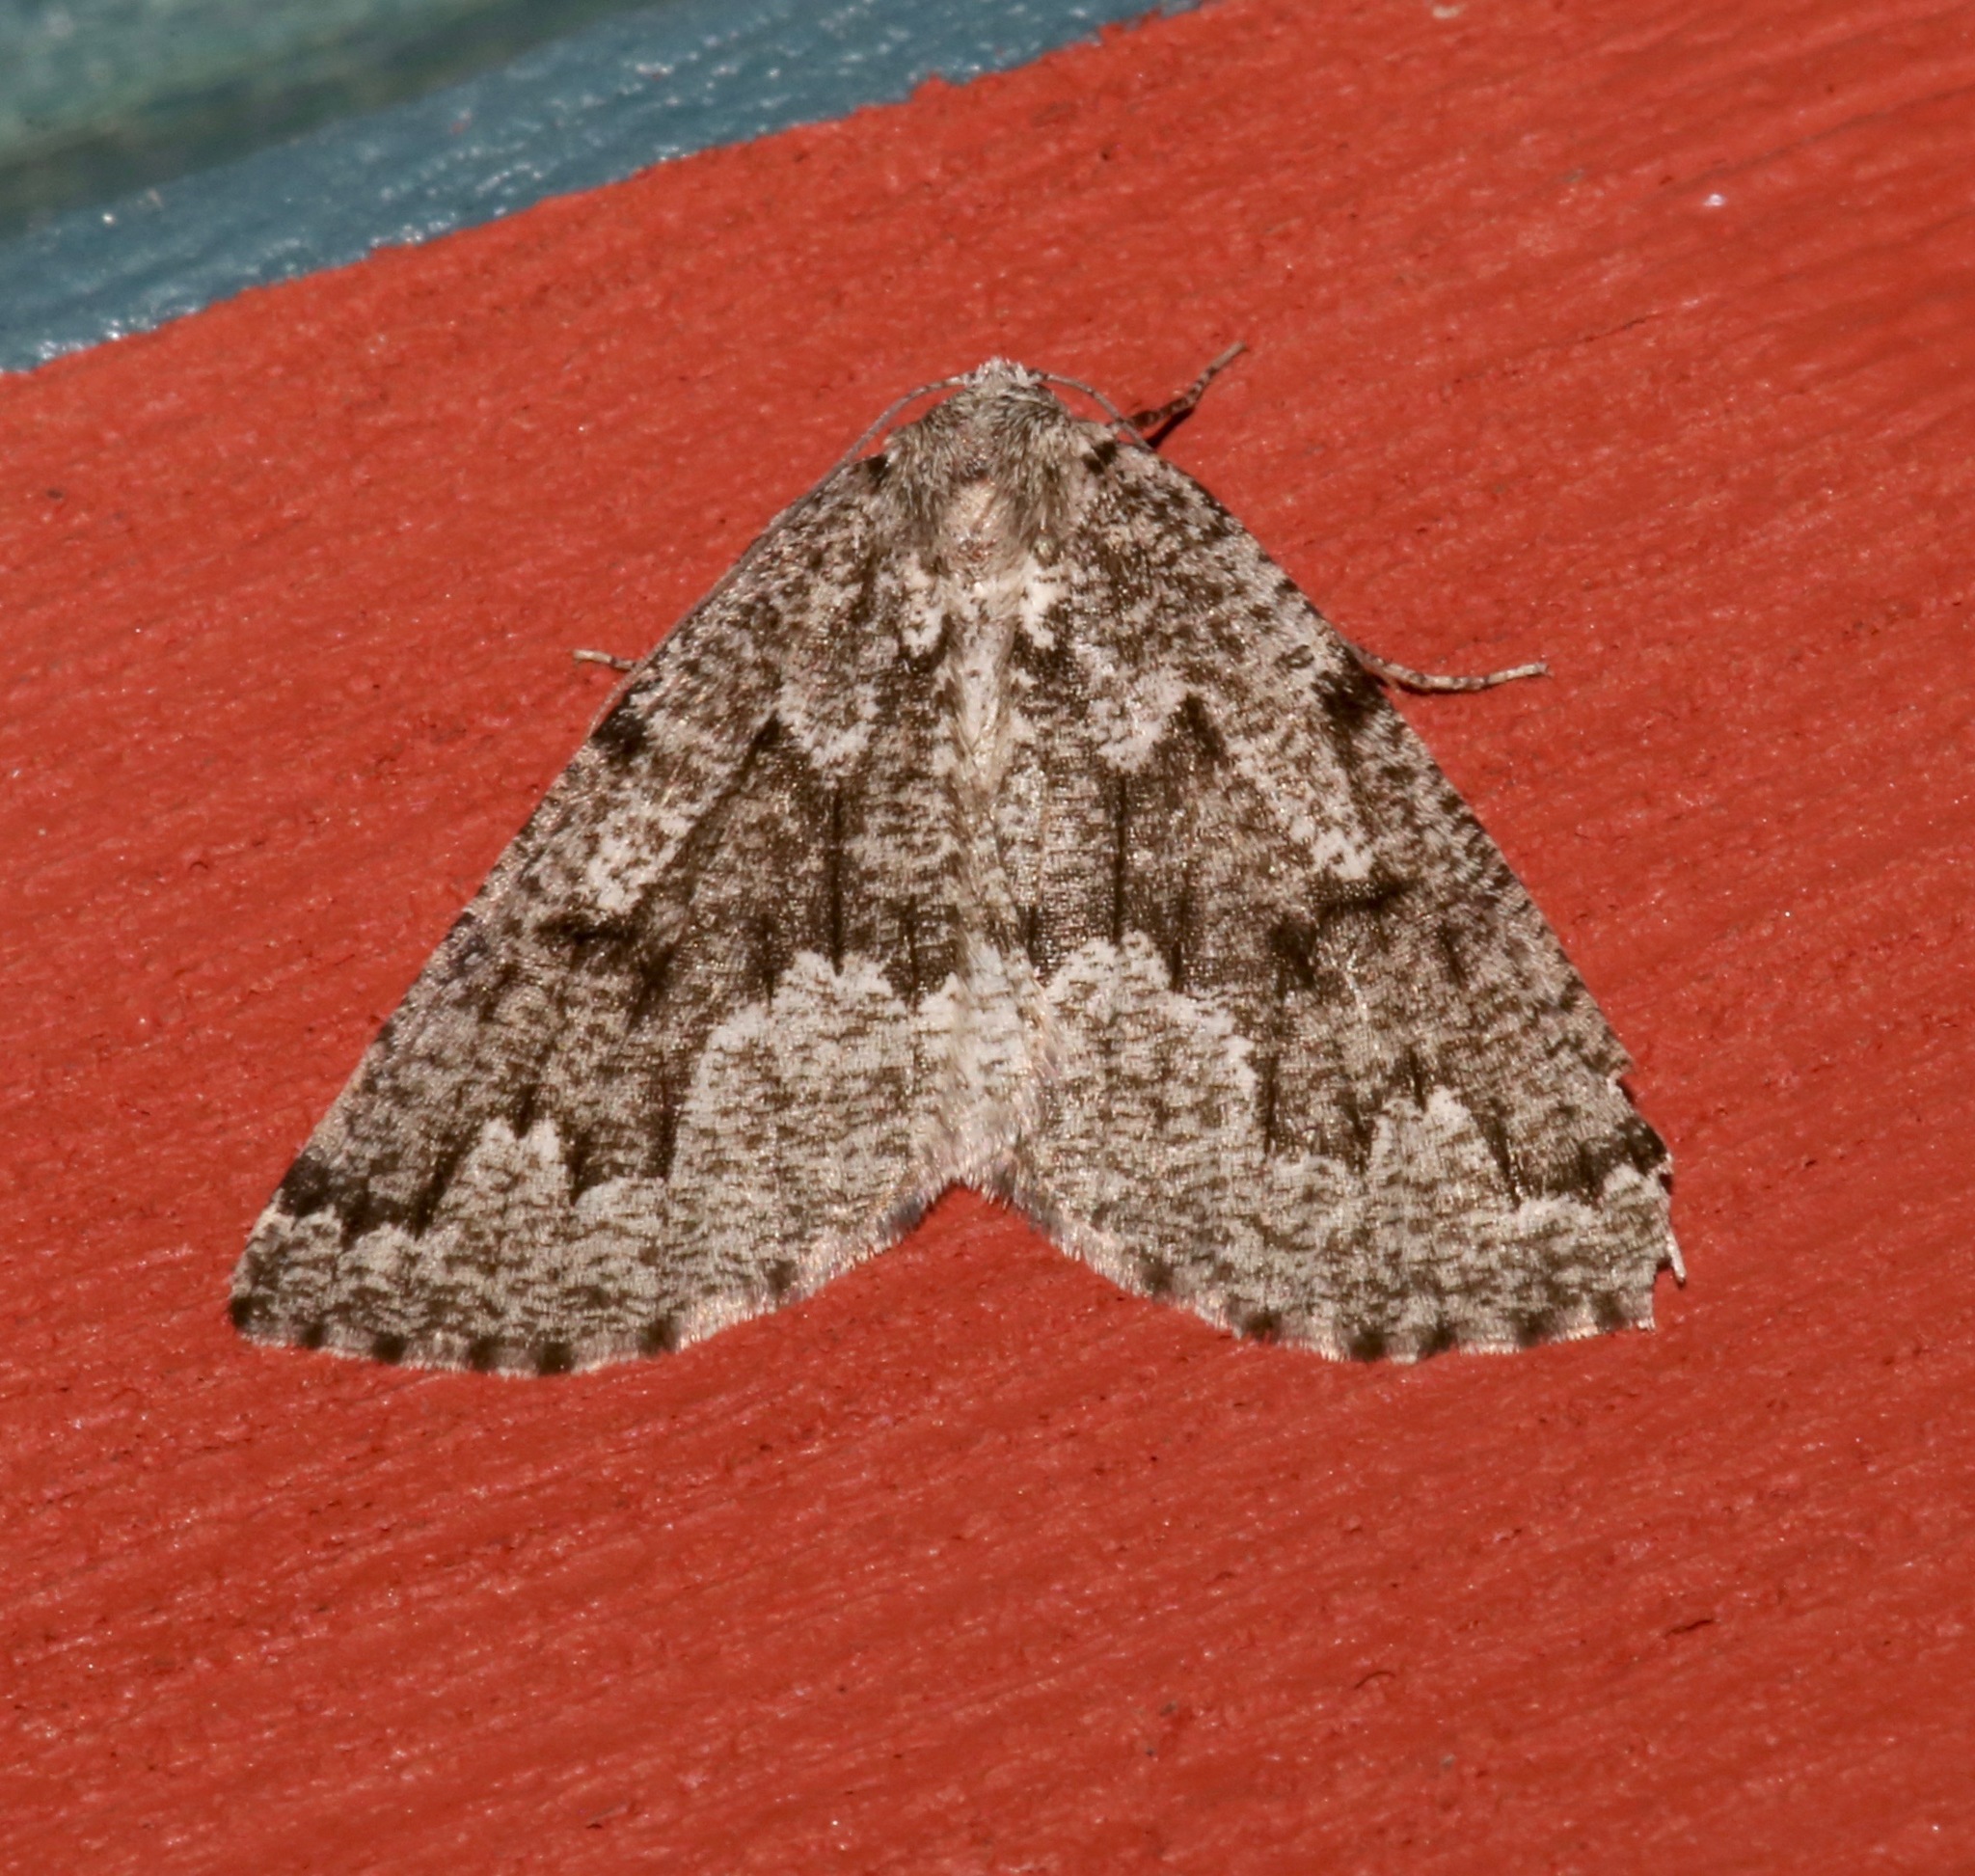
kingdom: Animalia
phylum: Arthropoda
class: Insecta
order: Lepidoptera
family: Geometridae
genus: Sabulodes
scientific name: Sabulodes
